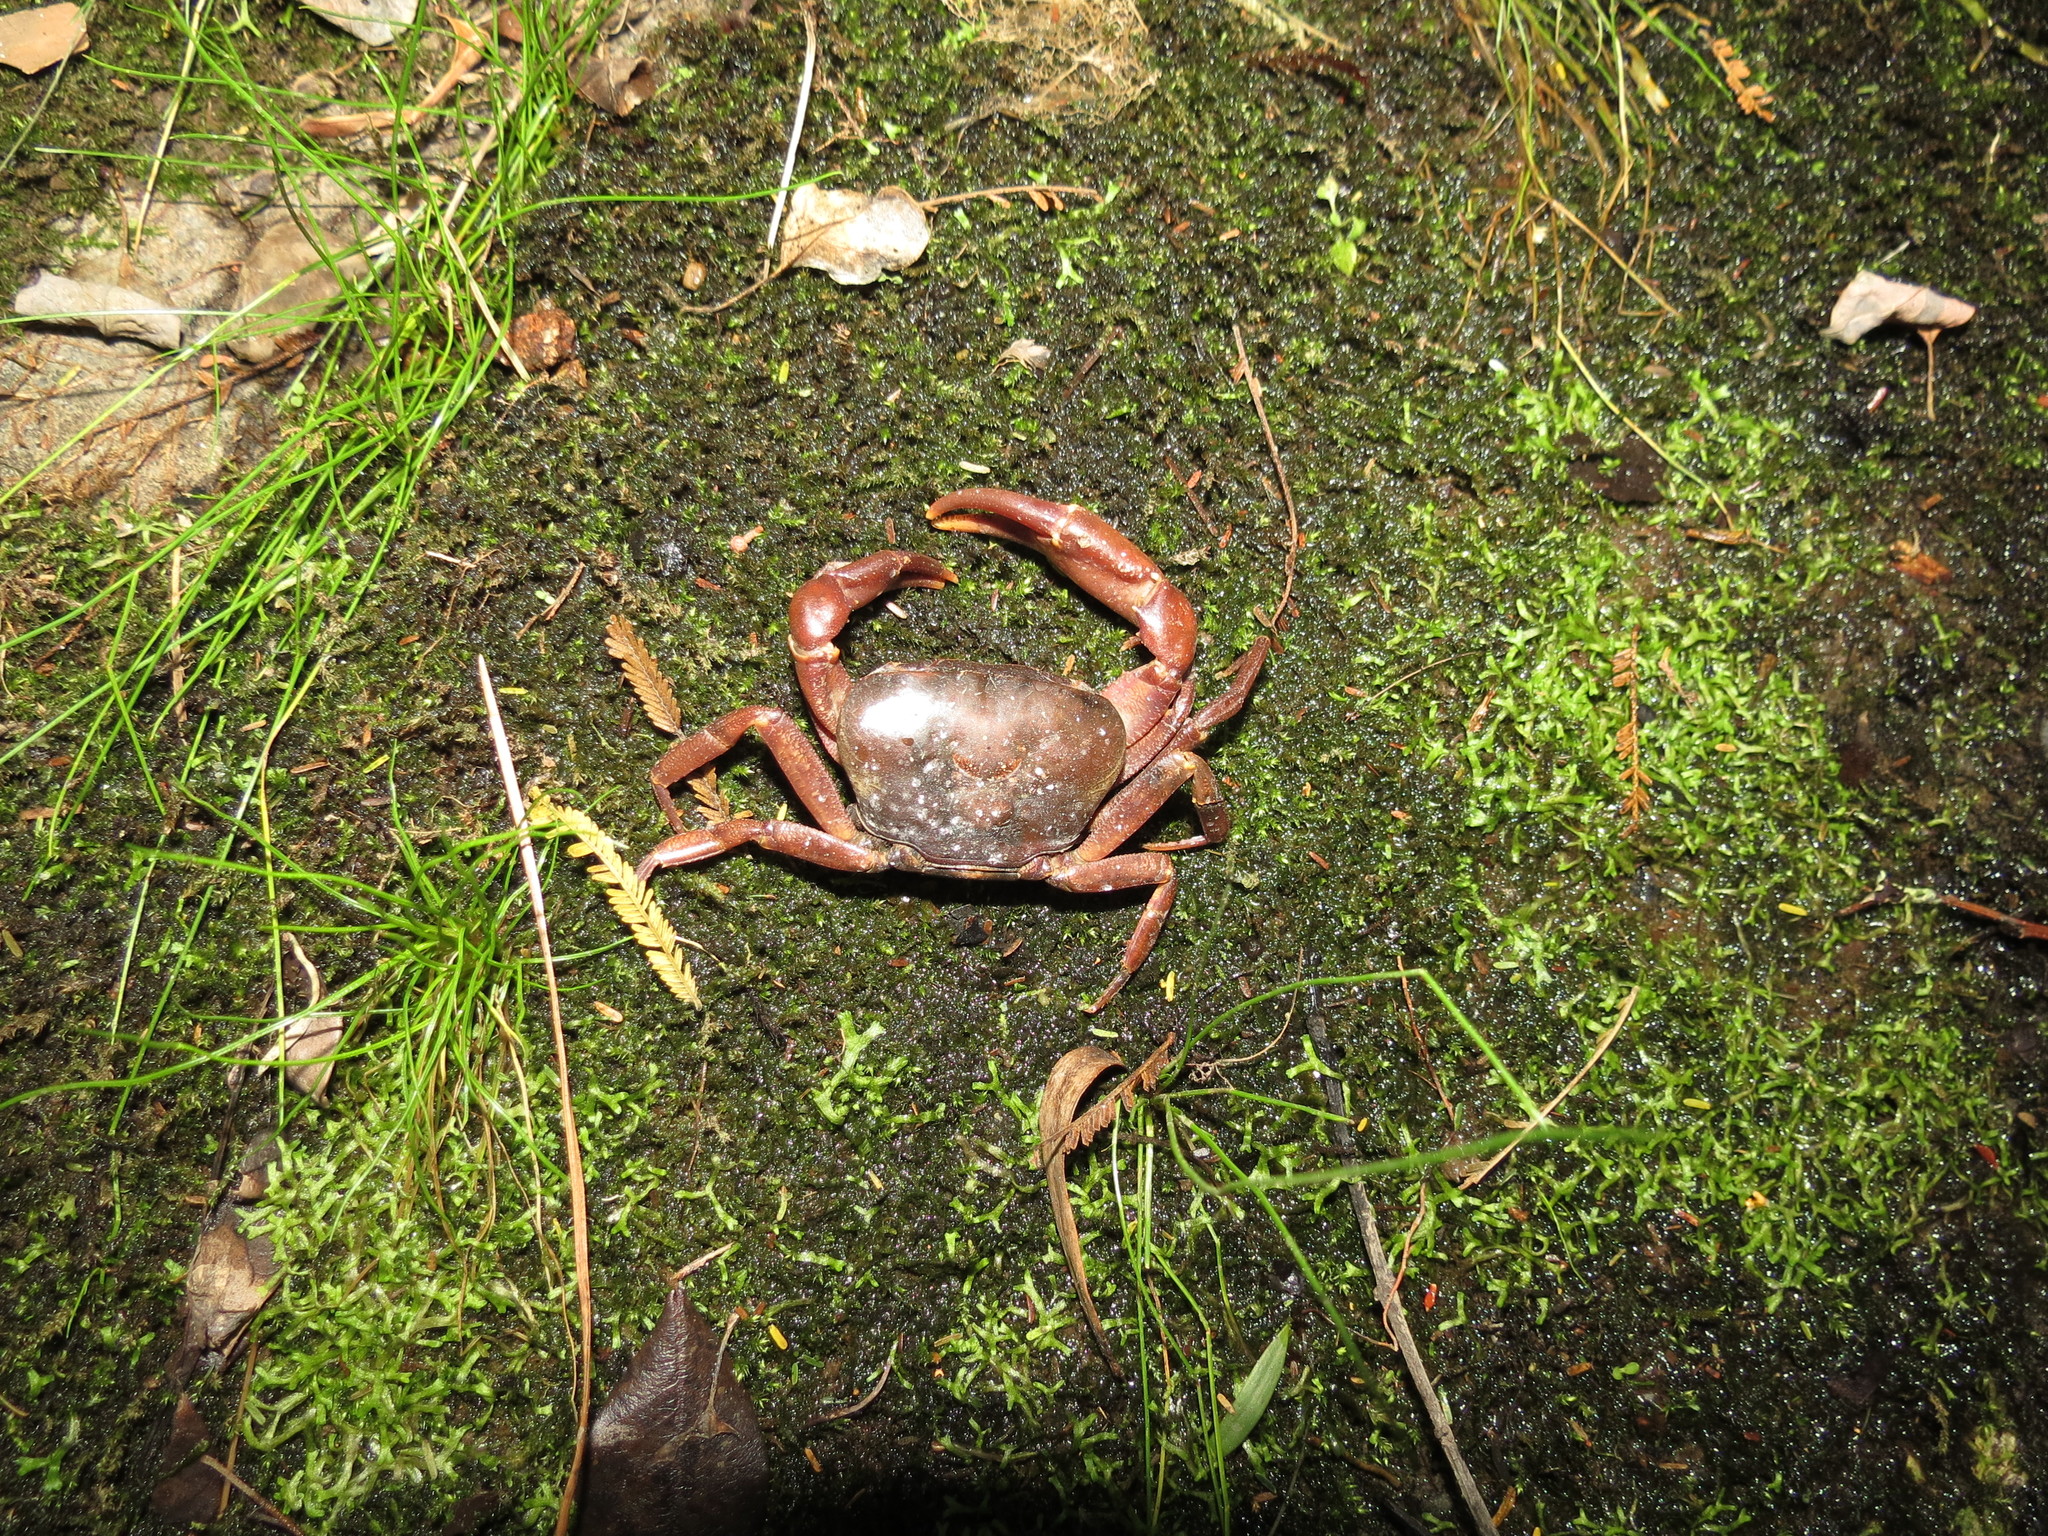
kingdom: Animalia
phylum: Arthropoda
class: Malacostraca
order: Decapoda
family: Potamonautidae
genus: Potamonautes
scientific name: Potamonautes amathole
